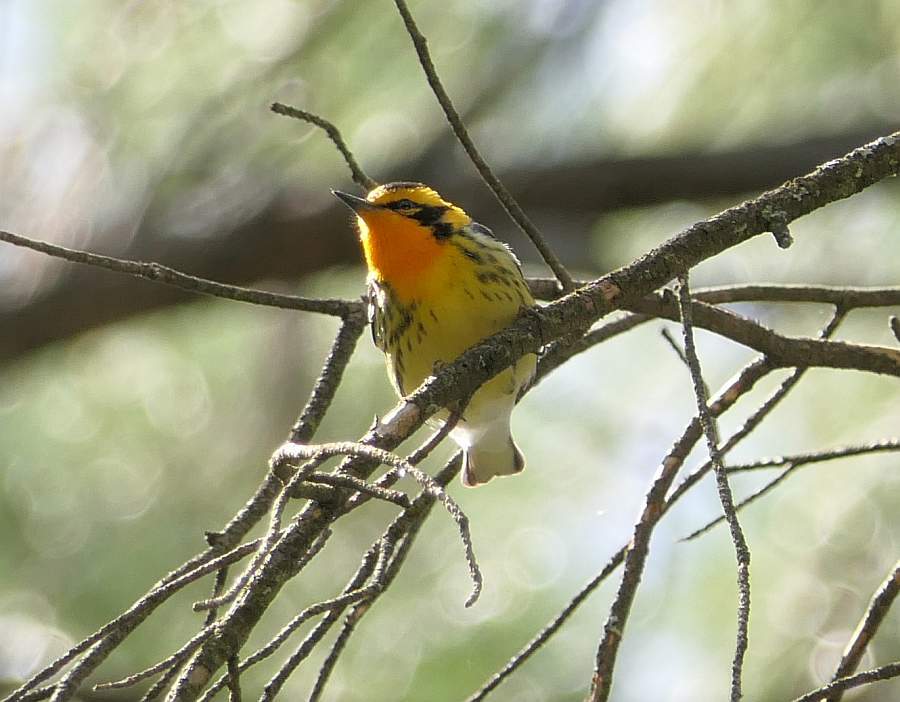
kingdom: Animalia
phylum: Chordata
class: Aves
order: Passeriformes
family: Parulidae
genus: Setophaga
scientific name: Setophaga fusca
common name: Blackburnian warbler
